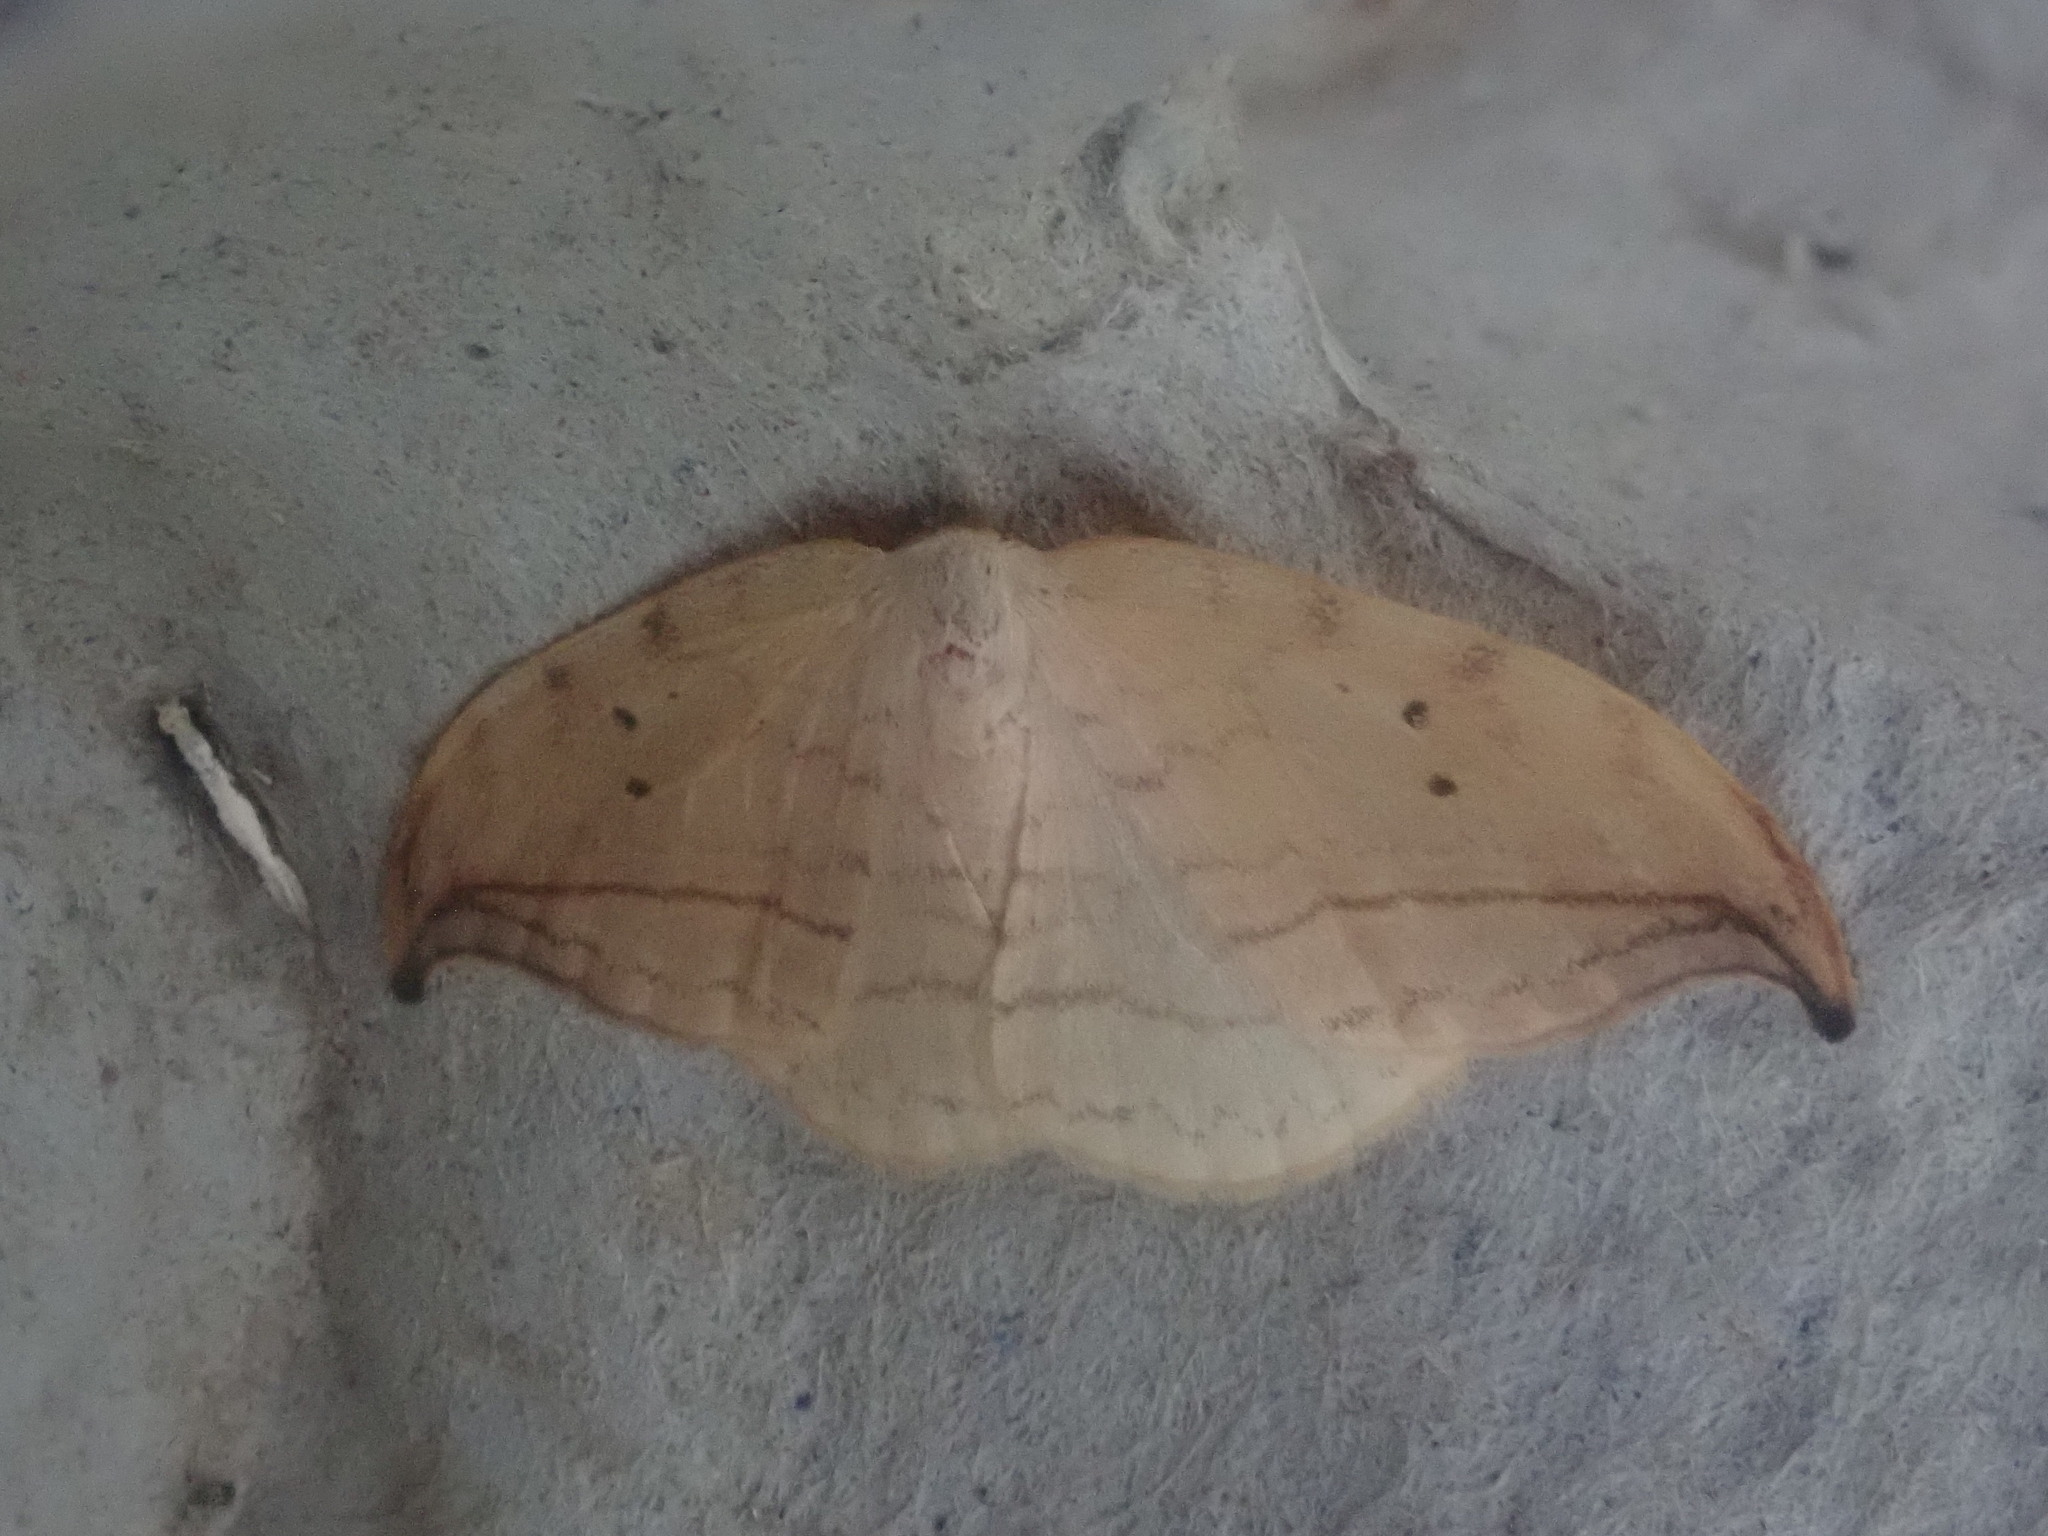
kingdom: Animalia
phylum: Arthropoda
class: Insecta
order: Lepidoptera
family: Drepanidae
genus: Drepana
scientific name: Drepana arcuata
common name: Arched hooktip moth
